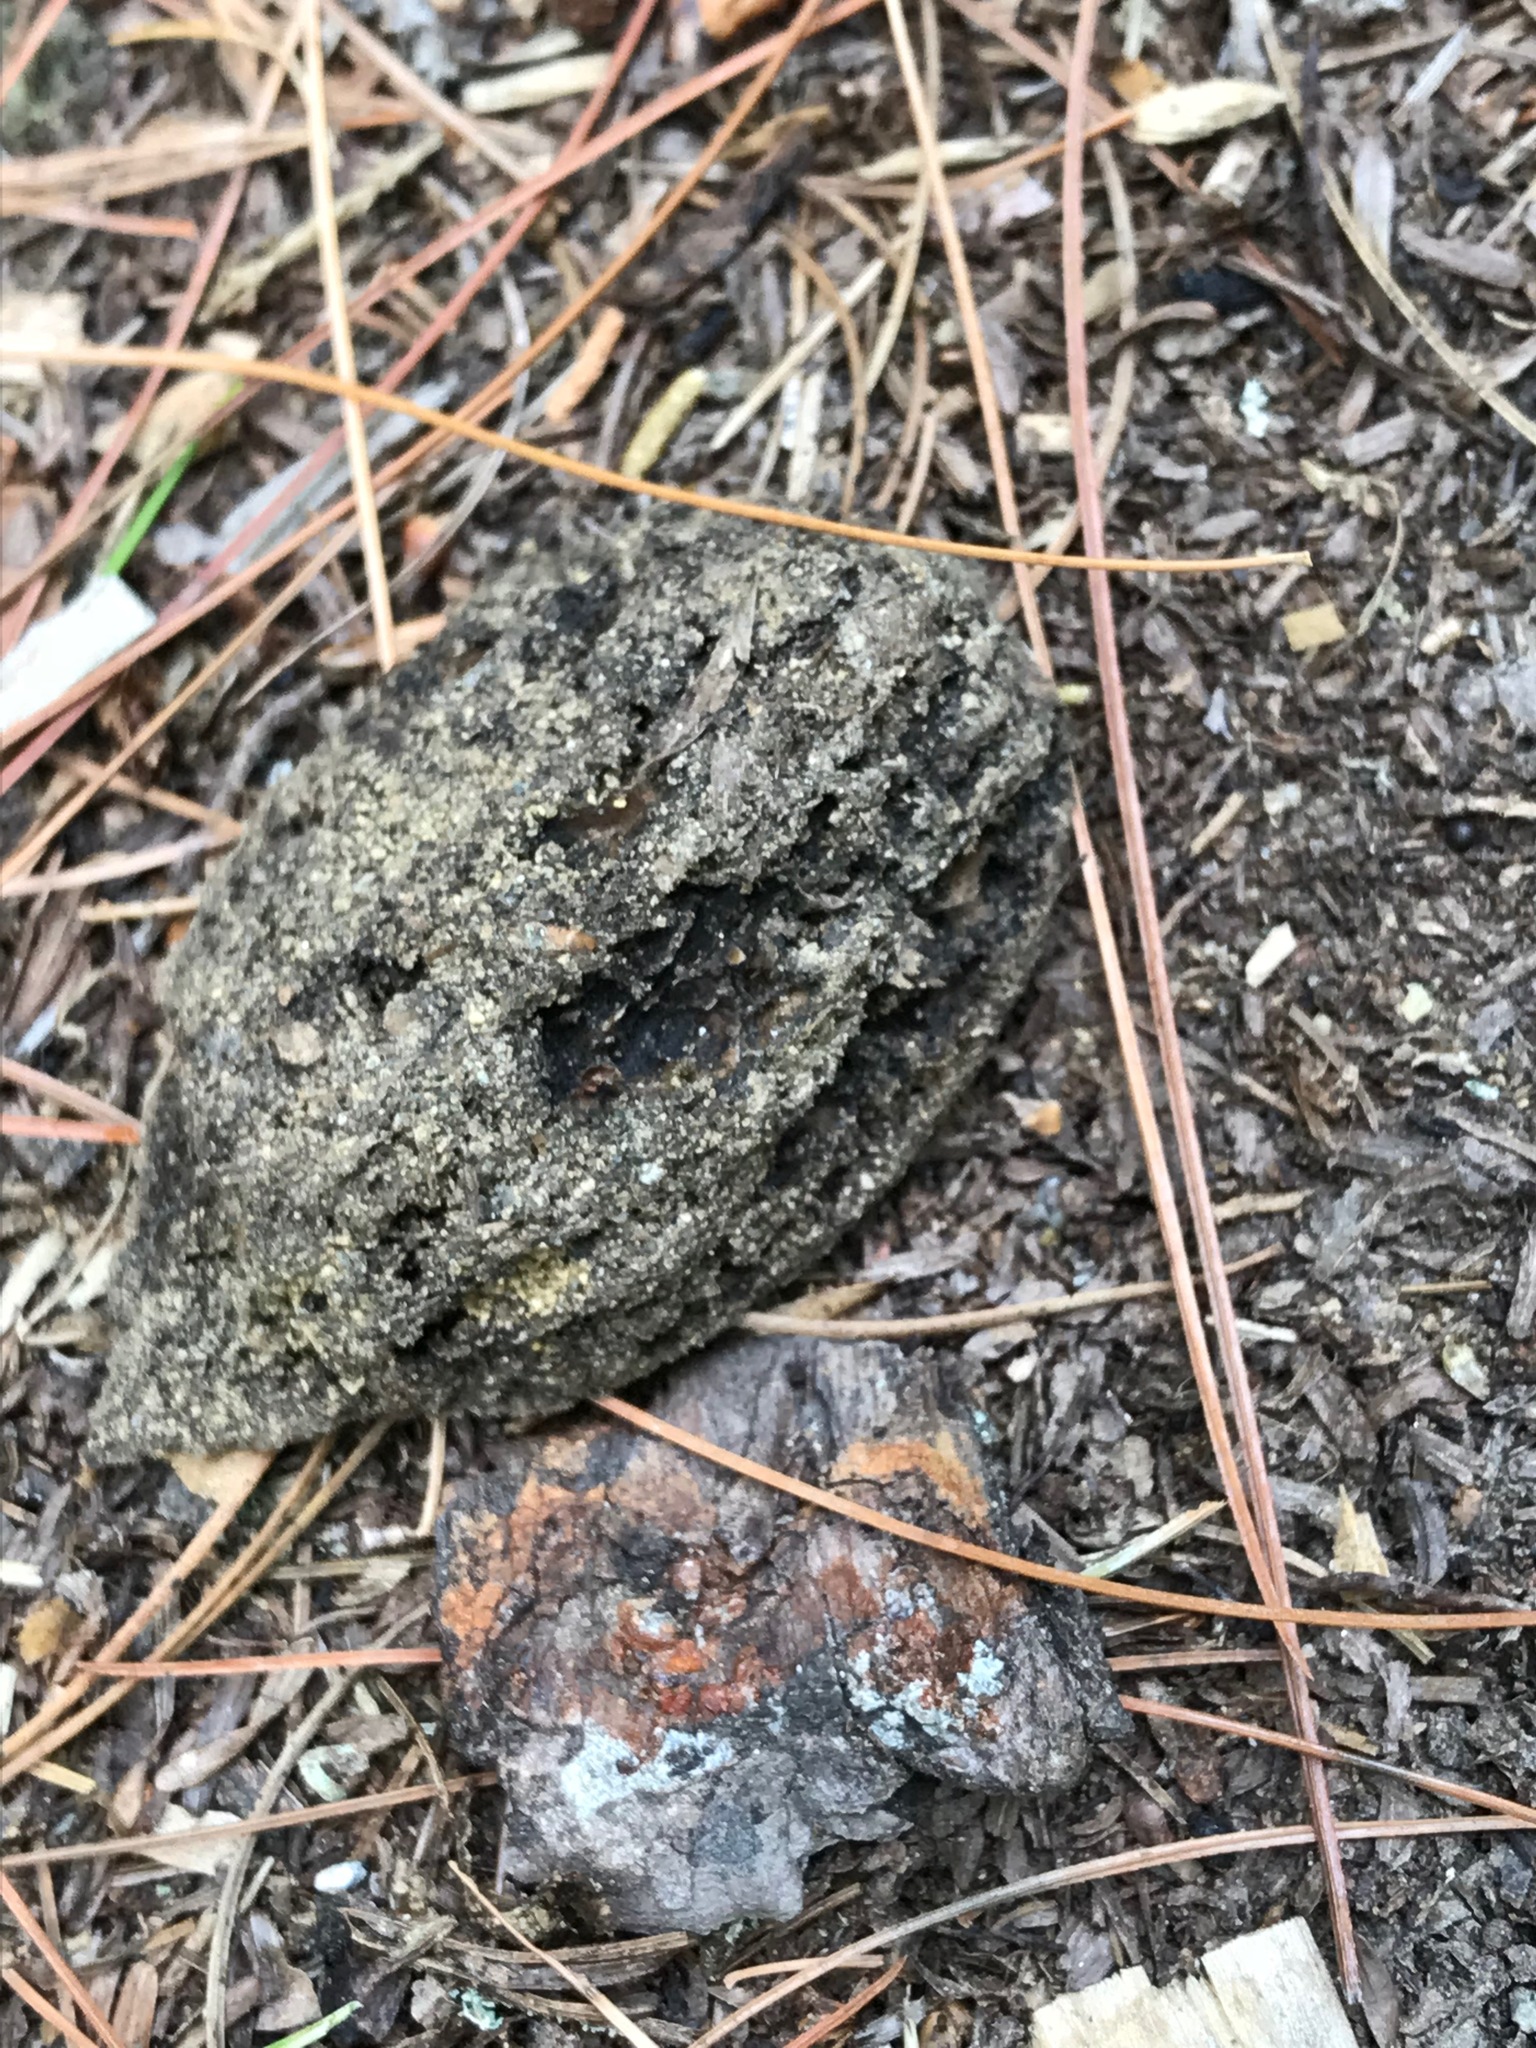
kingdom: Plantae
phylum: Tracheophyta
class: Magnoliopsida
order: Fagales
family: Juglandaceae
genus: Juglans
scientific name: Juglans cinerea
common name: Butternut
